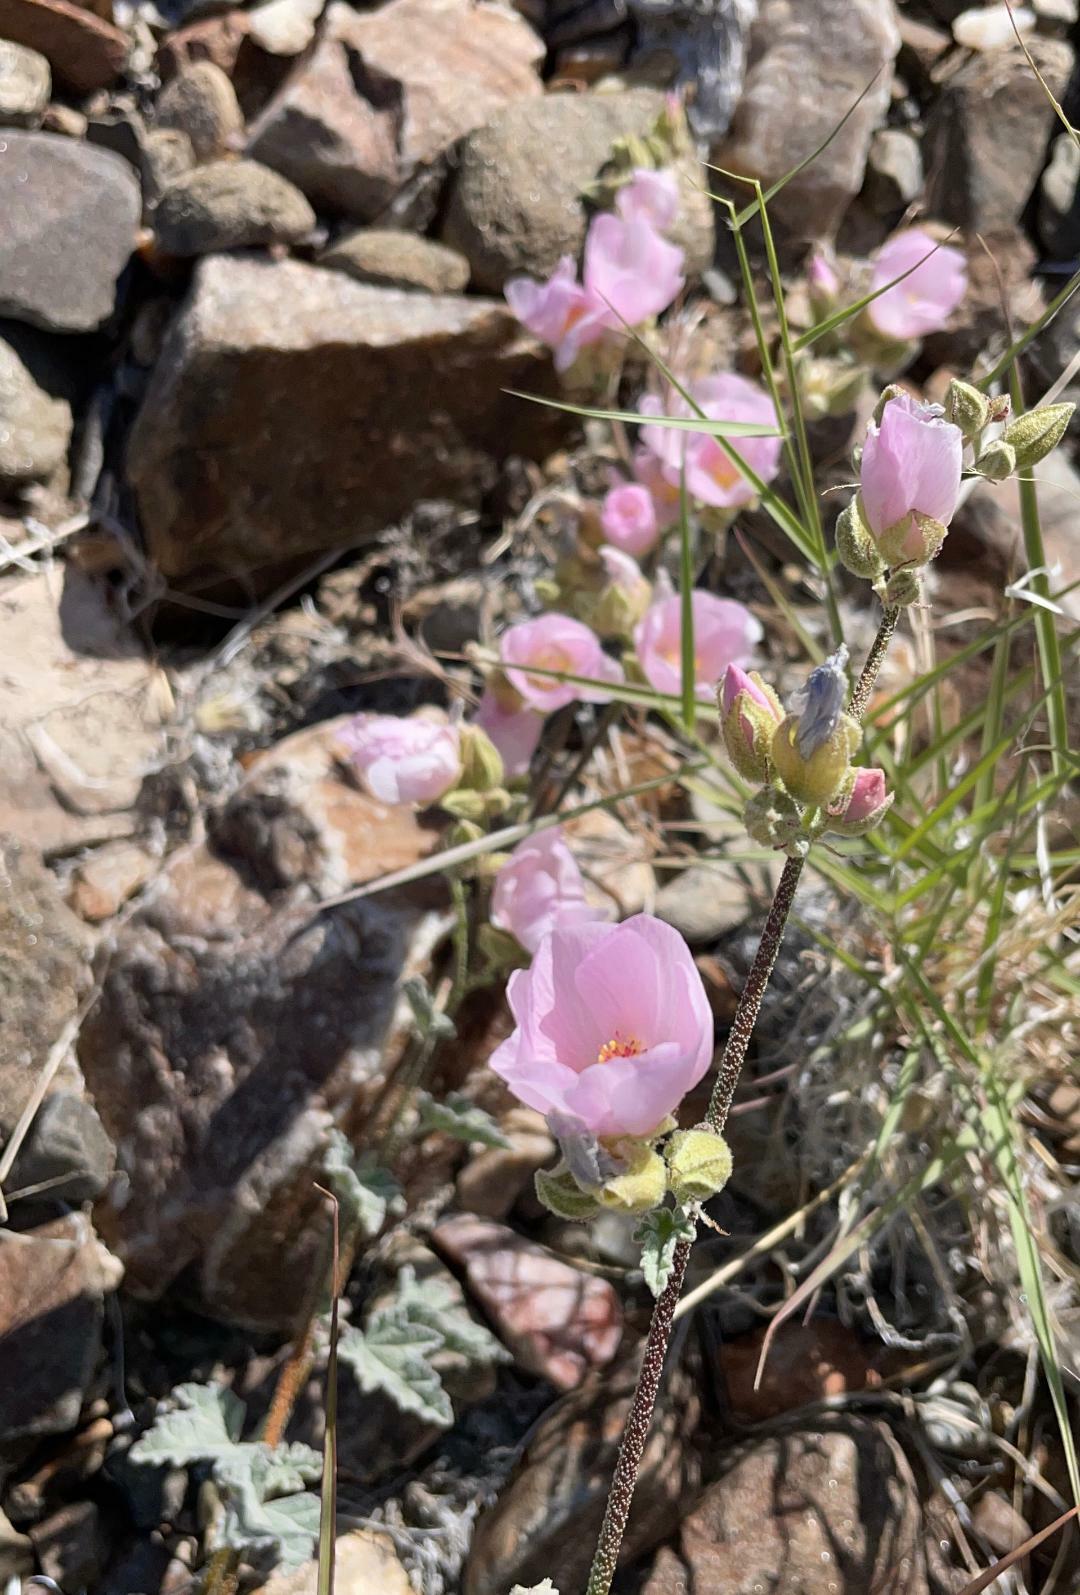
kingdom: Plantae
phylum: Tracheophyta
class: Magnoliopsida
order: Malvales
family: Malvaceae
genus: Sphaeralcea
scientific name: Sphaeralcea ambigua
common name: Apricot globe-mallow
